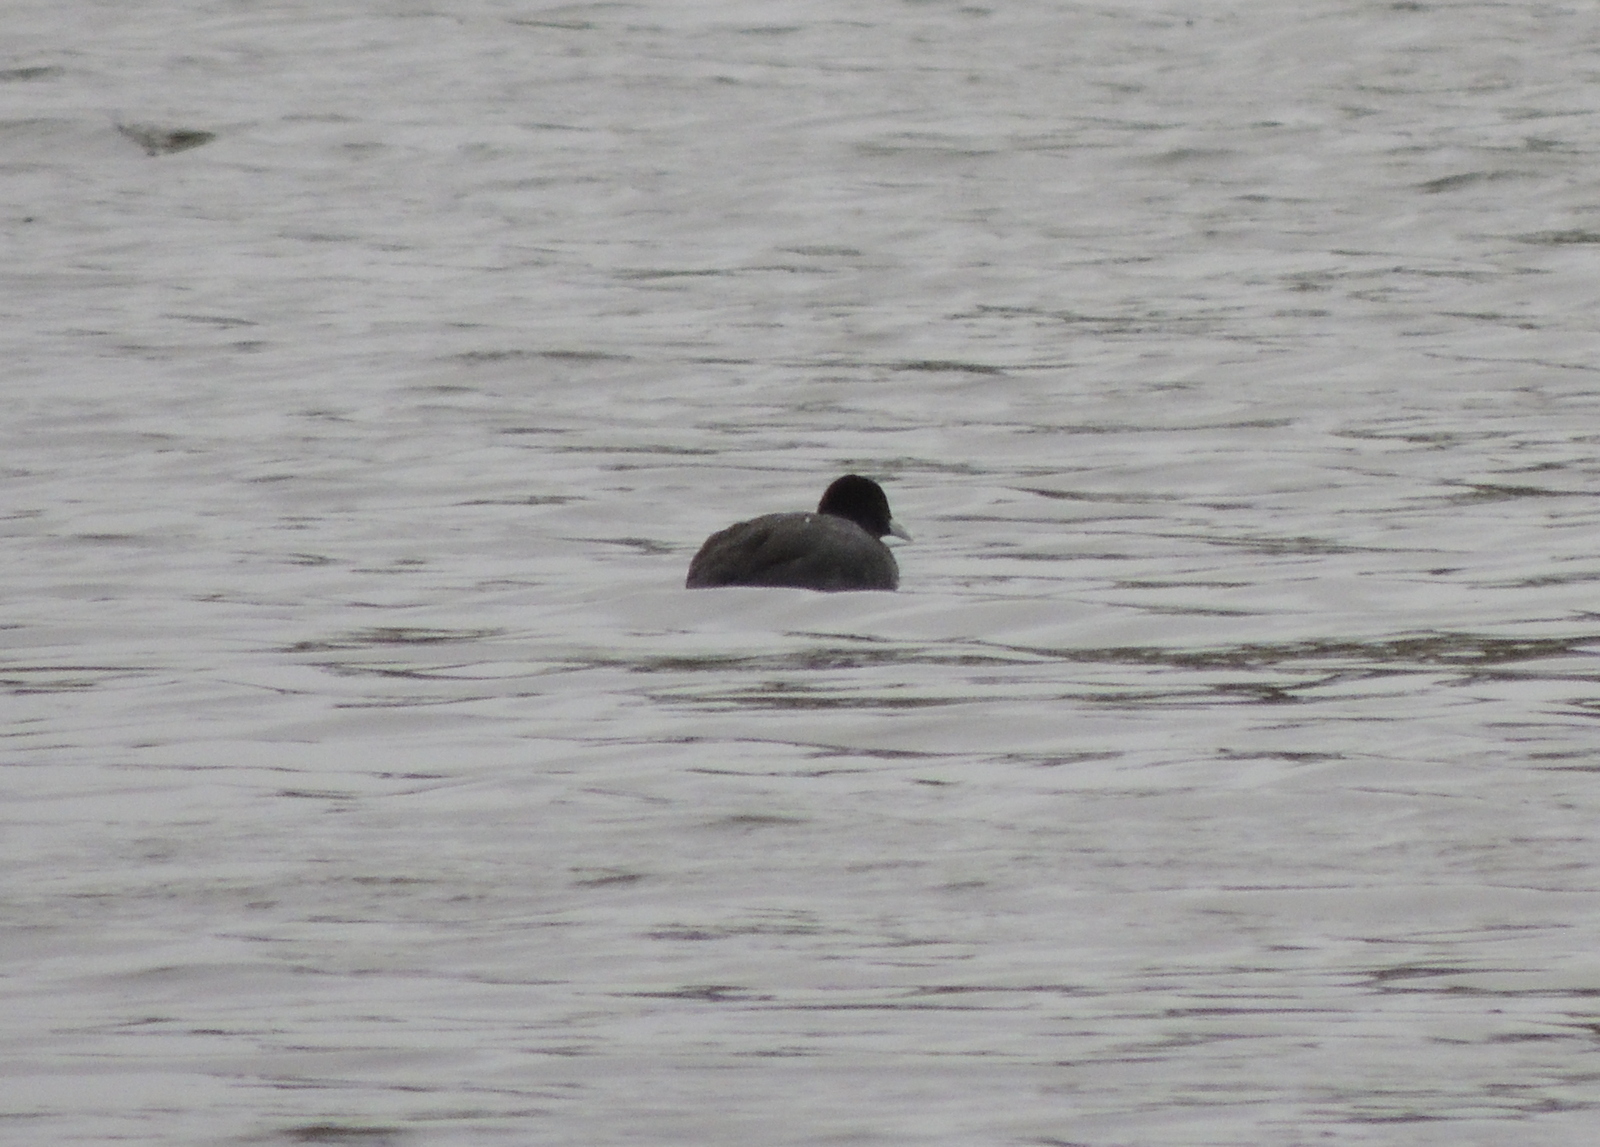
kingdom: Animalia
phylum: Chordata
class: Aves
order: Gruiformes
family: Rallidae
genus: Fulica
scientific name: Fulica atra
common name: Eurasian coot
